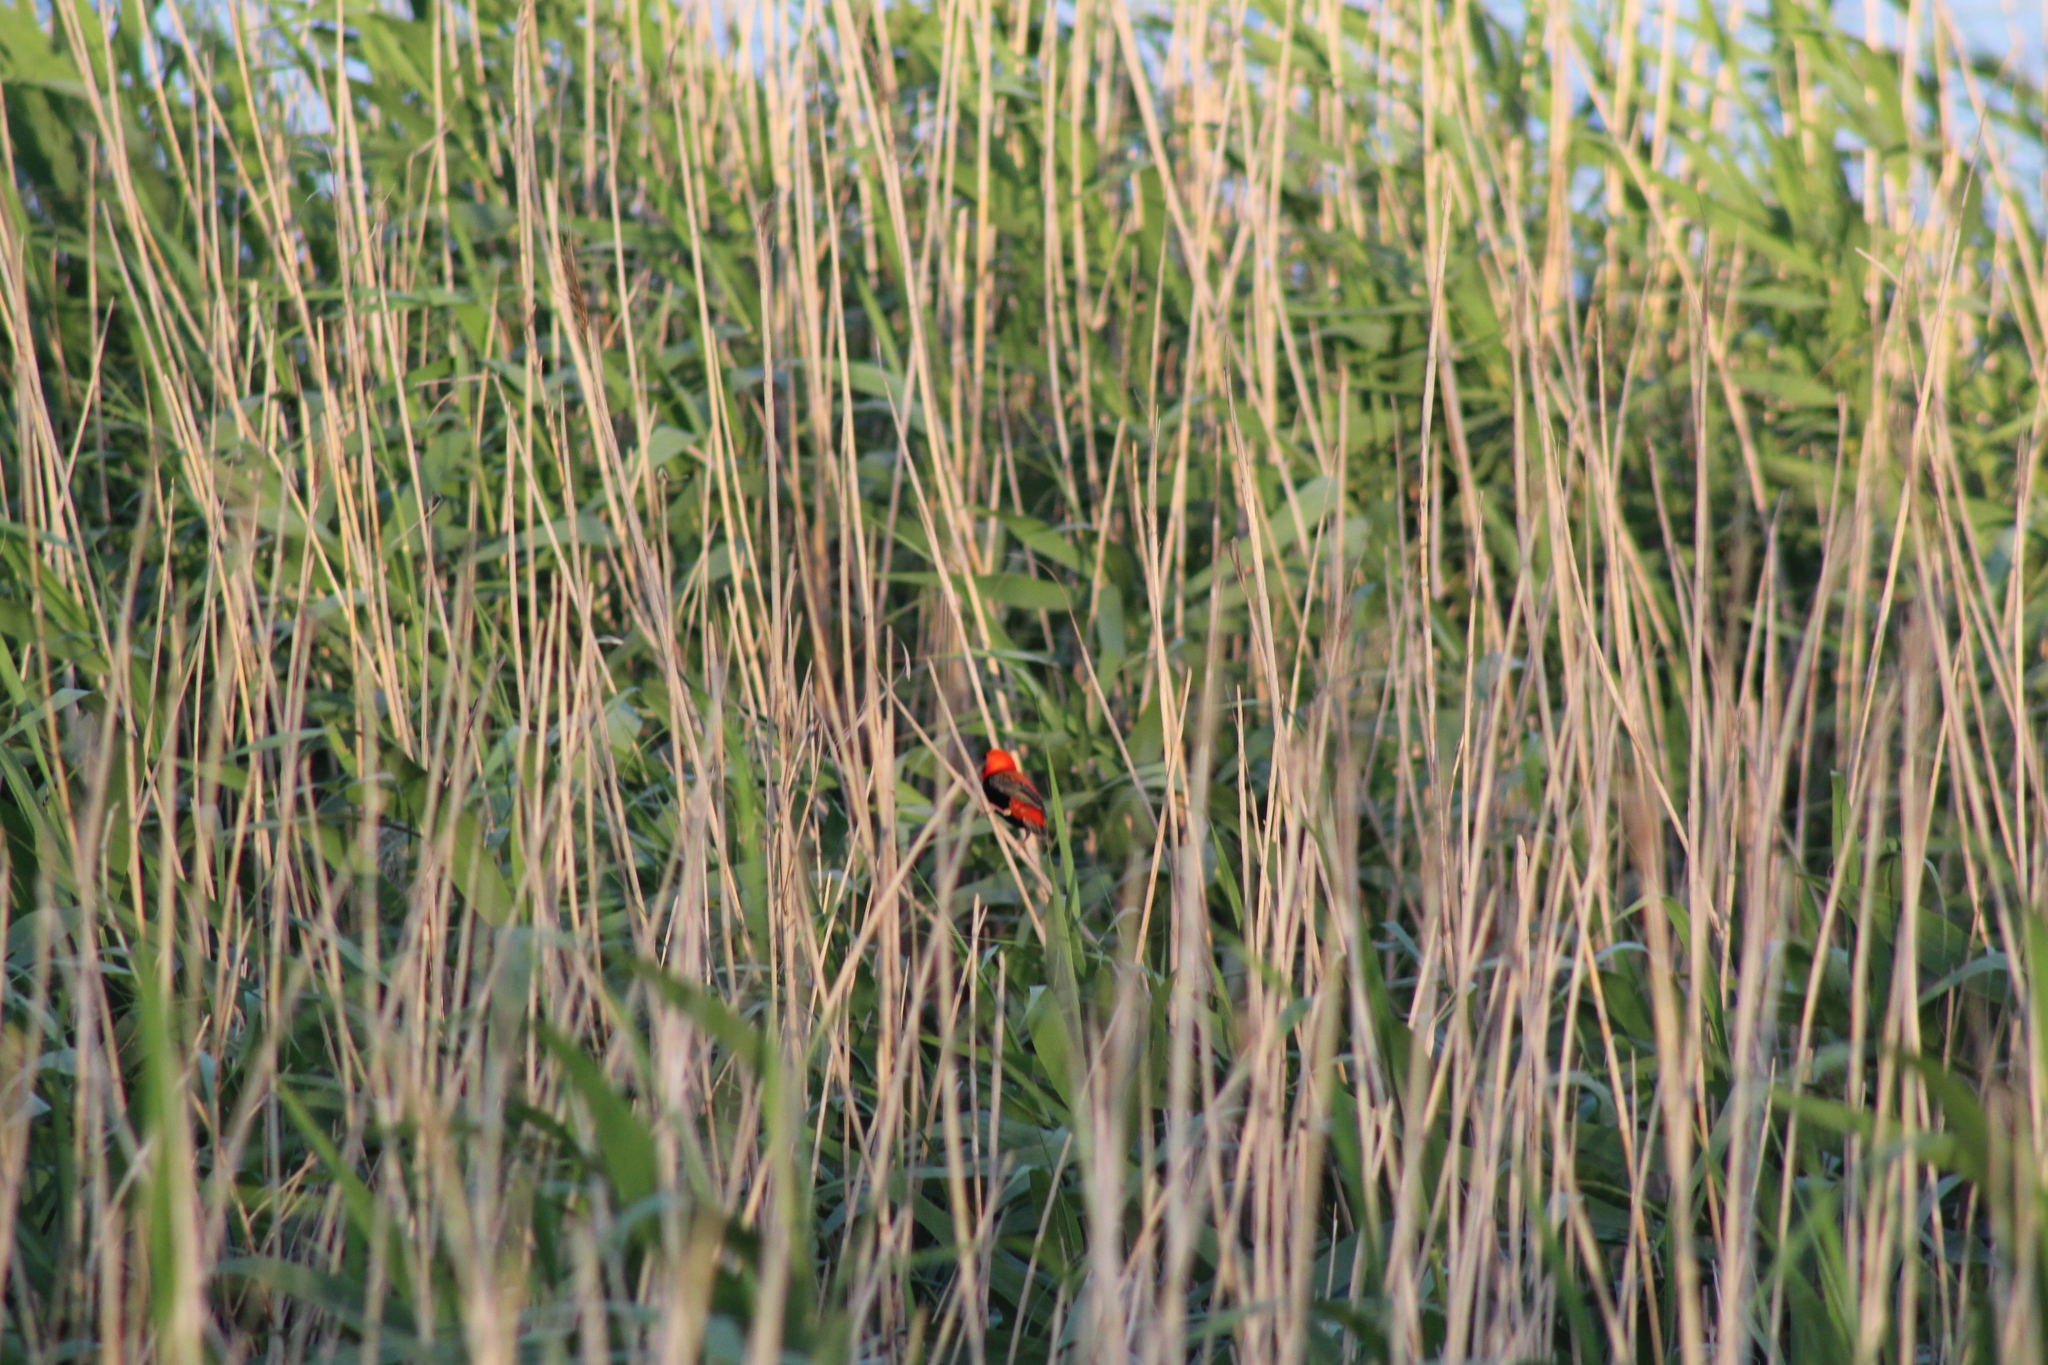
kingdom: Animalia
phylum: Chordata
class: Aves
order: Passeriformes
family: Ploceidae
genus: Euplectes
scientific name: Euplectes orix
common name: Southern red bishop
